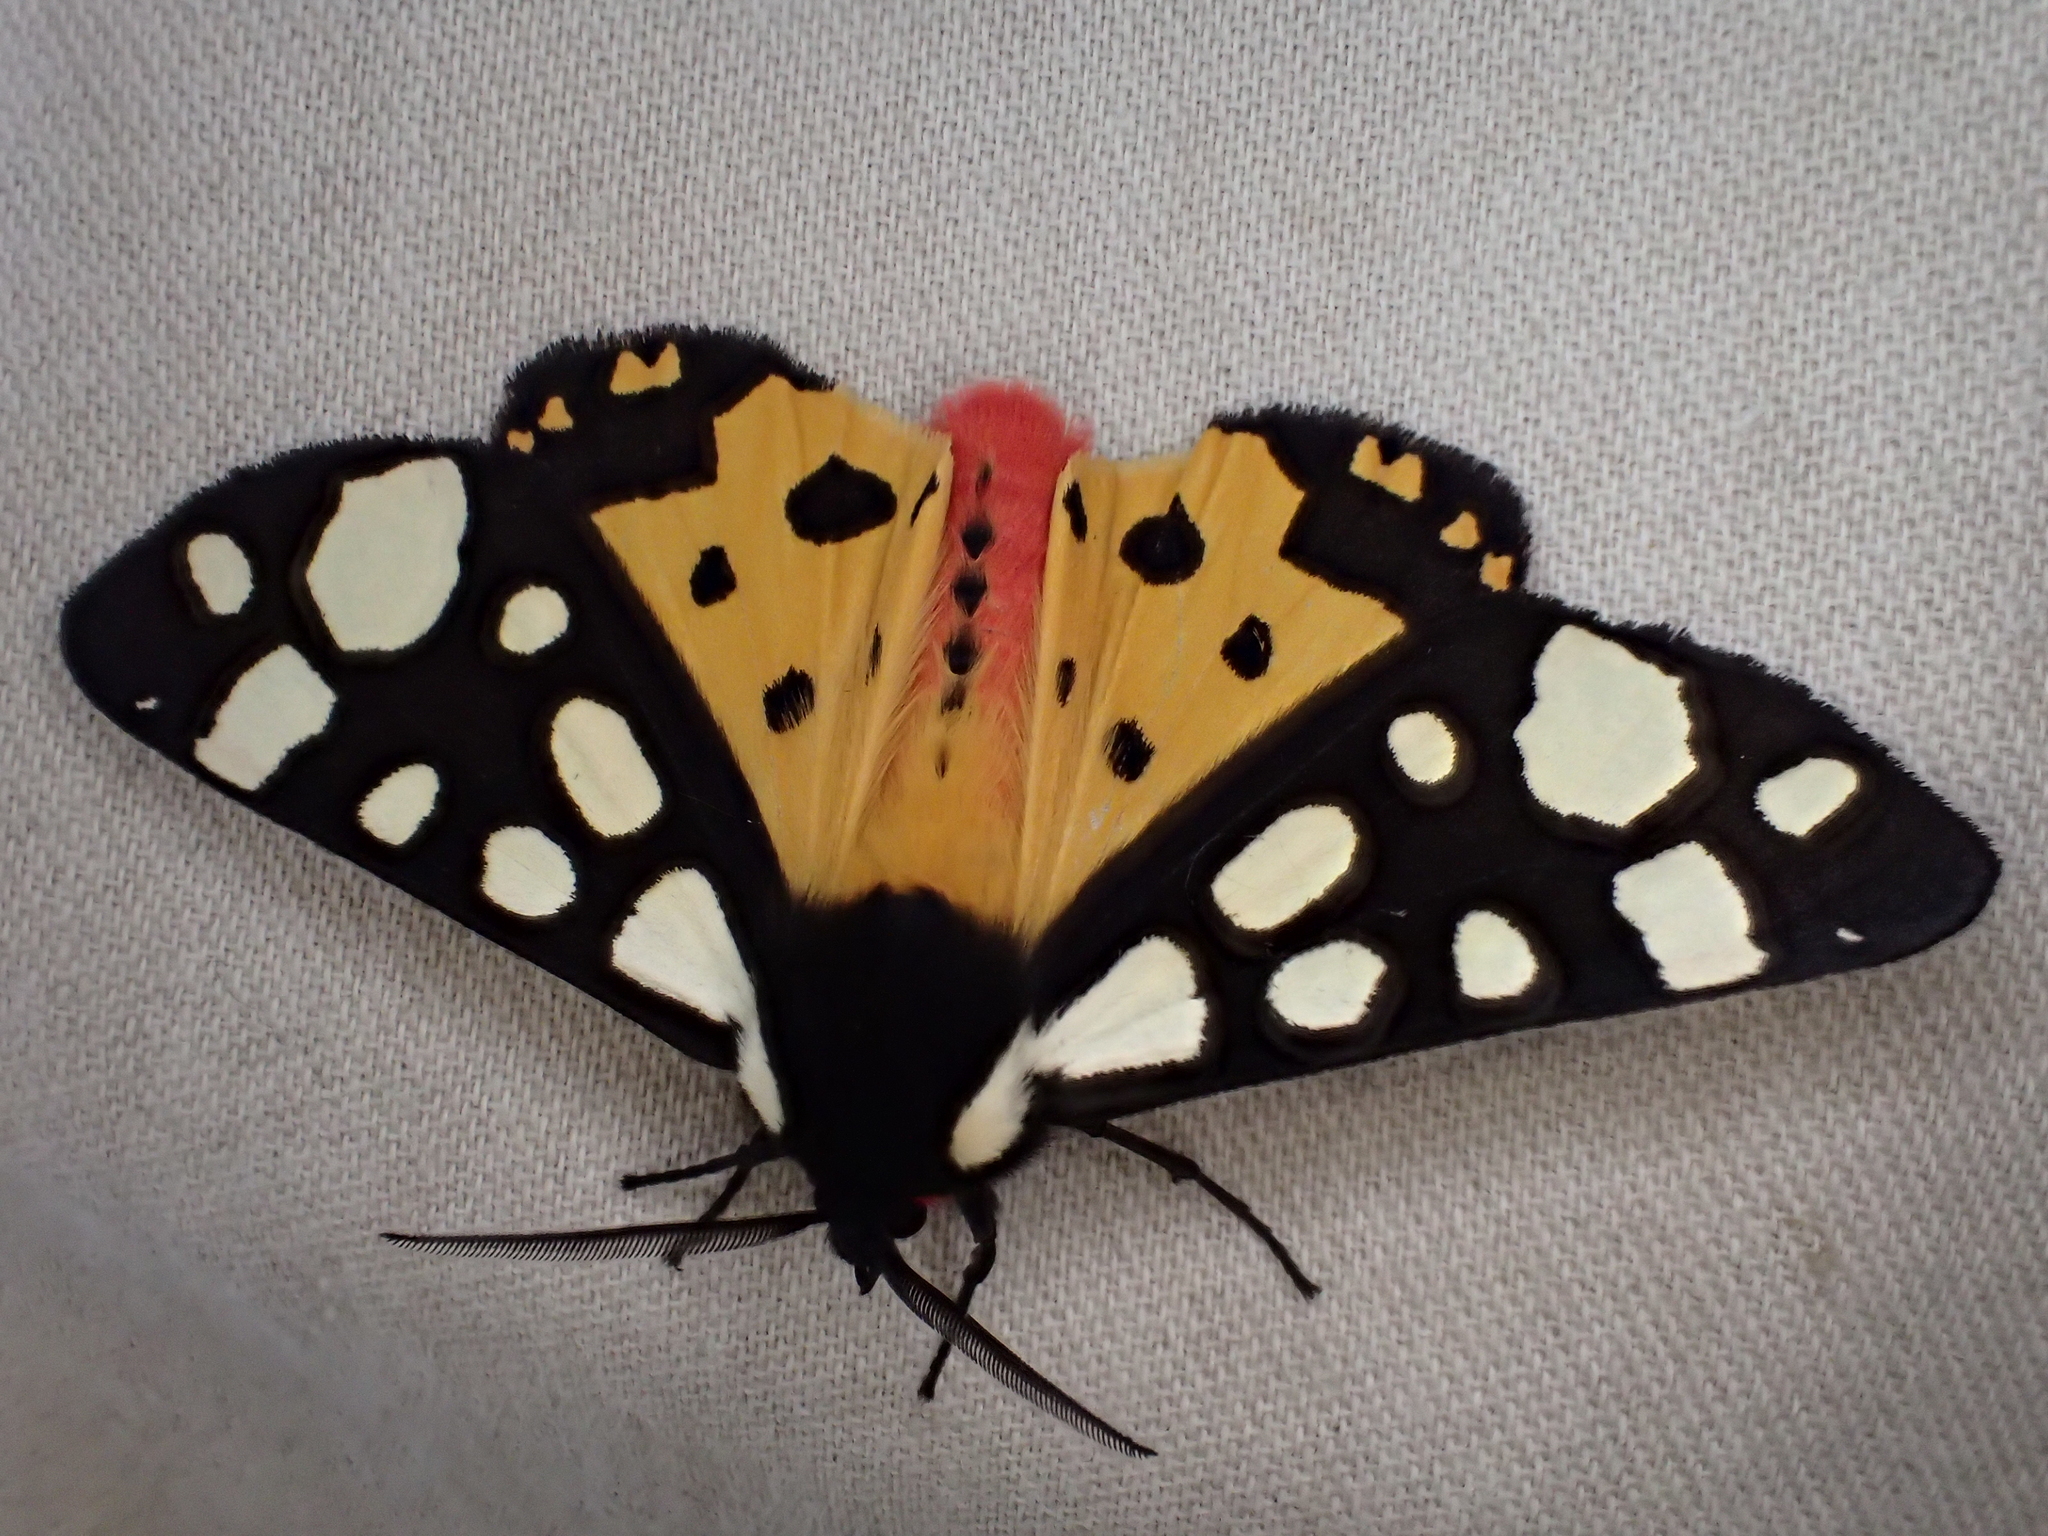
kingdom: Animalia
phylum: Arthropoda
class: Insecta
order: Lepidoptera
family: Erebidae
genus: Epicallia
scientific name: Epicallia villica
